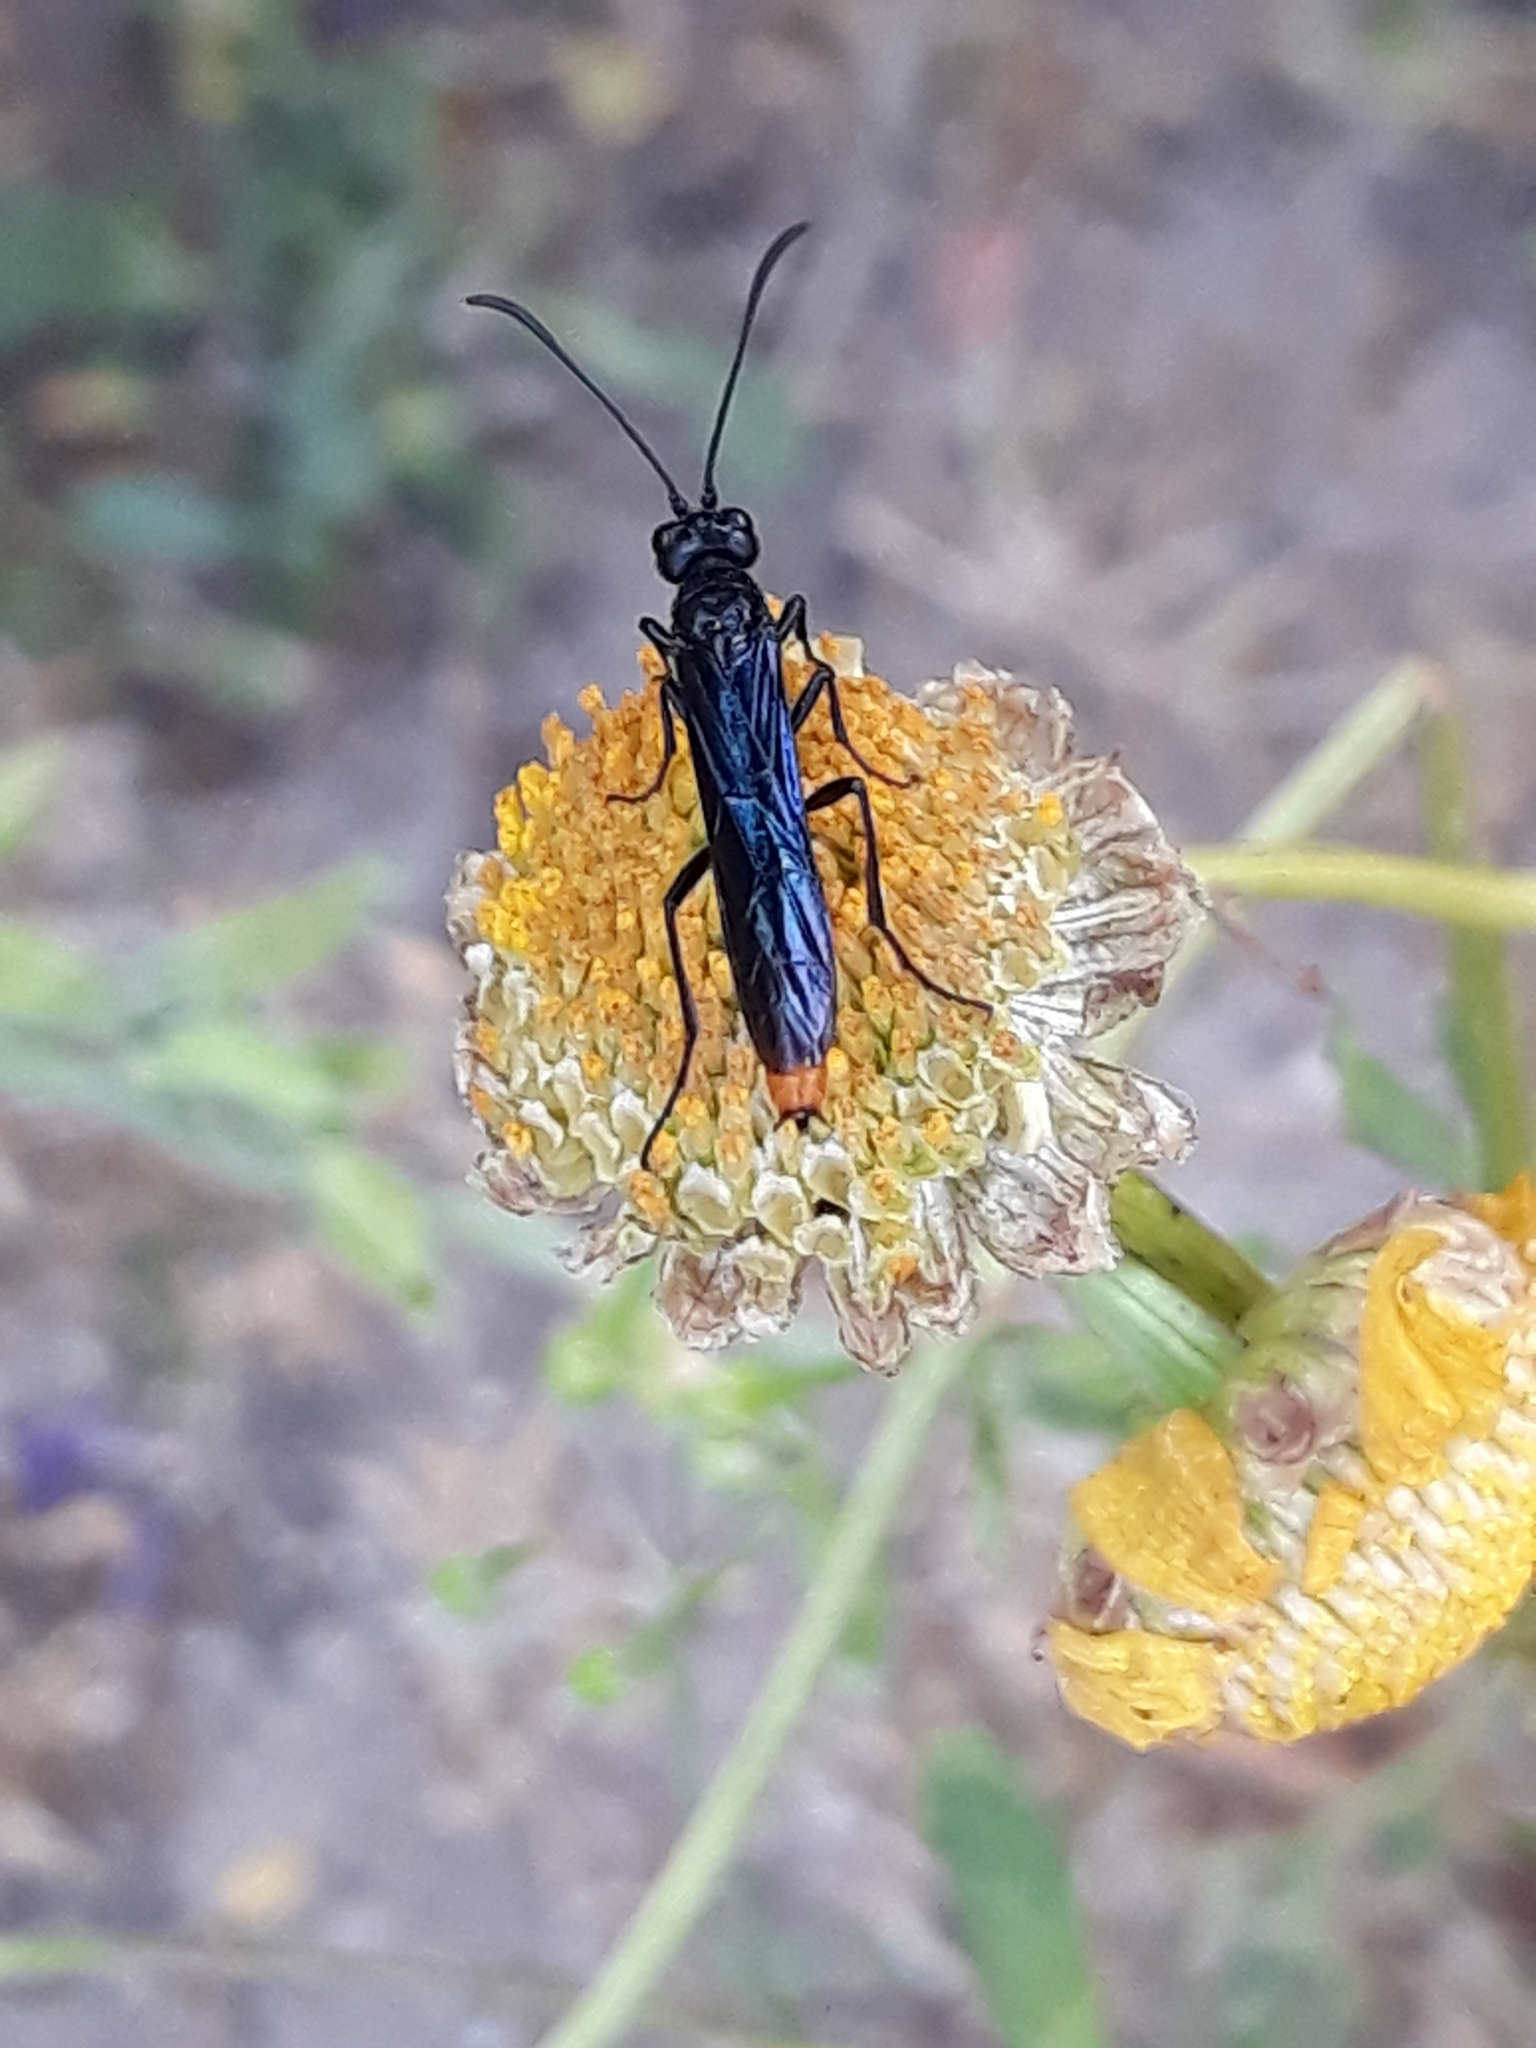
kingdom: Animalia
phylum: Arthropoda
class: Insecta
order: Hymenoptera
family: Ichneumonidae
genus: Ichneumon
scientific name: Ichneumon pygmaeus
